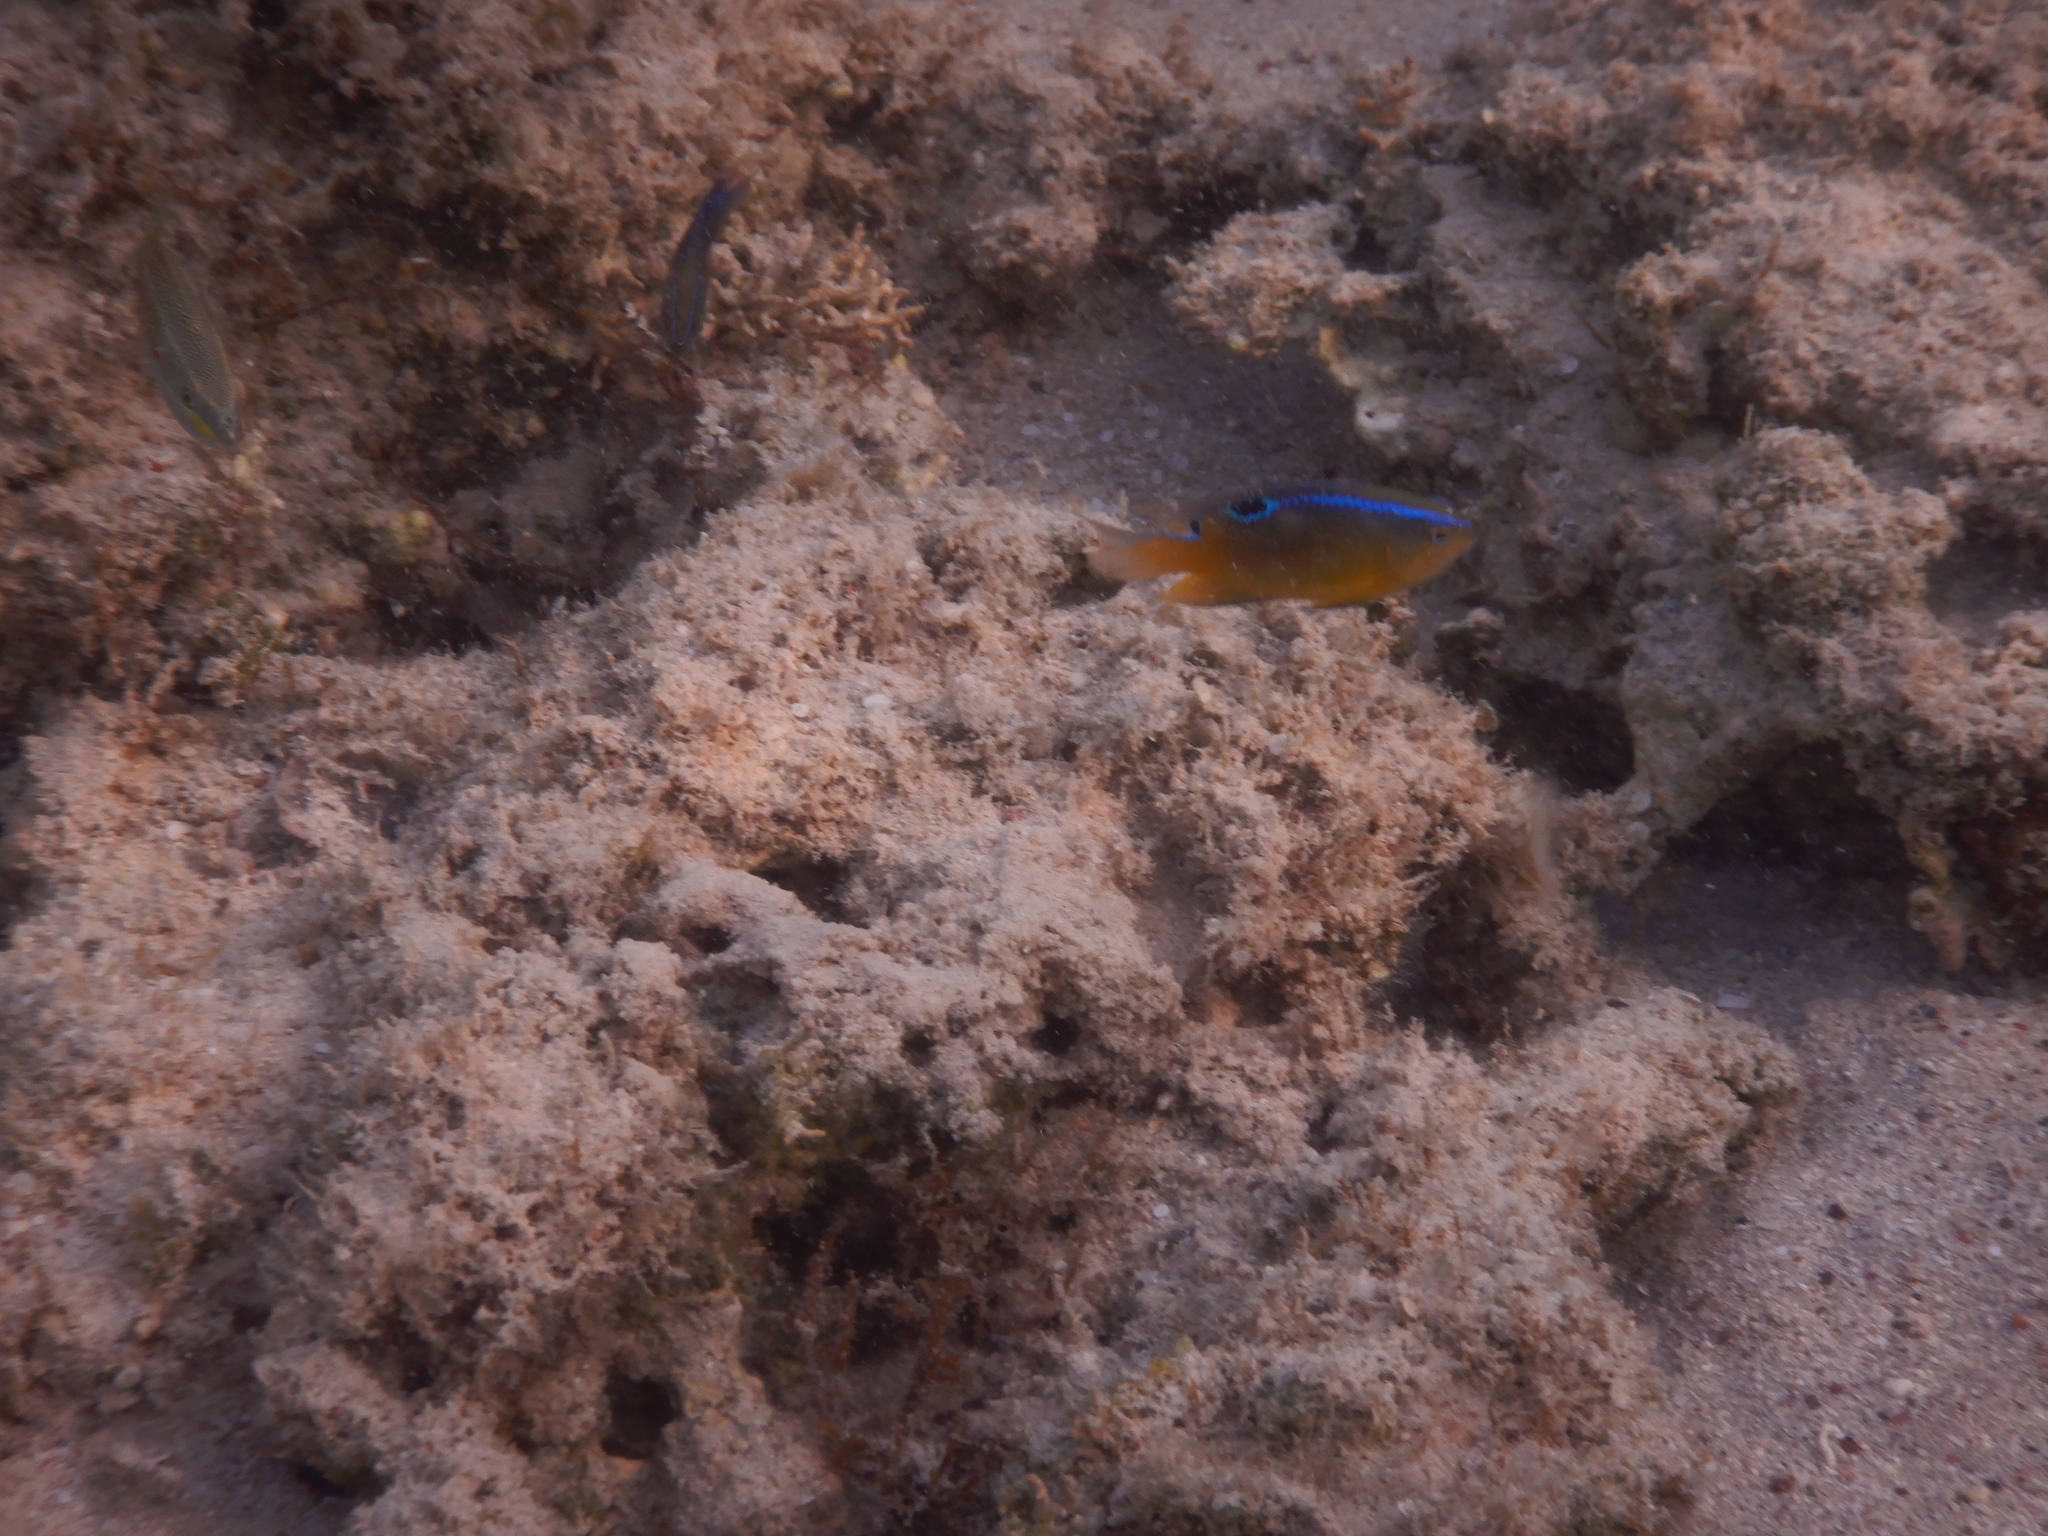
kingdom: Animalia
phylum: Chordata
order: Perciformes
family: Pomacentridae
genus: Chrysiptera
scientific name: Chrysiptera unimaculata
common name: Onespot demoiselle
